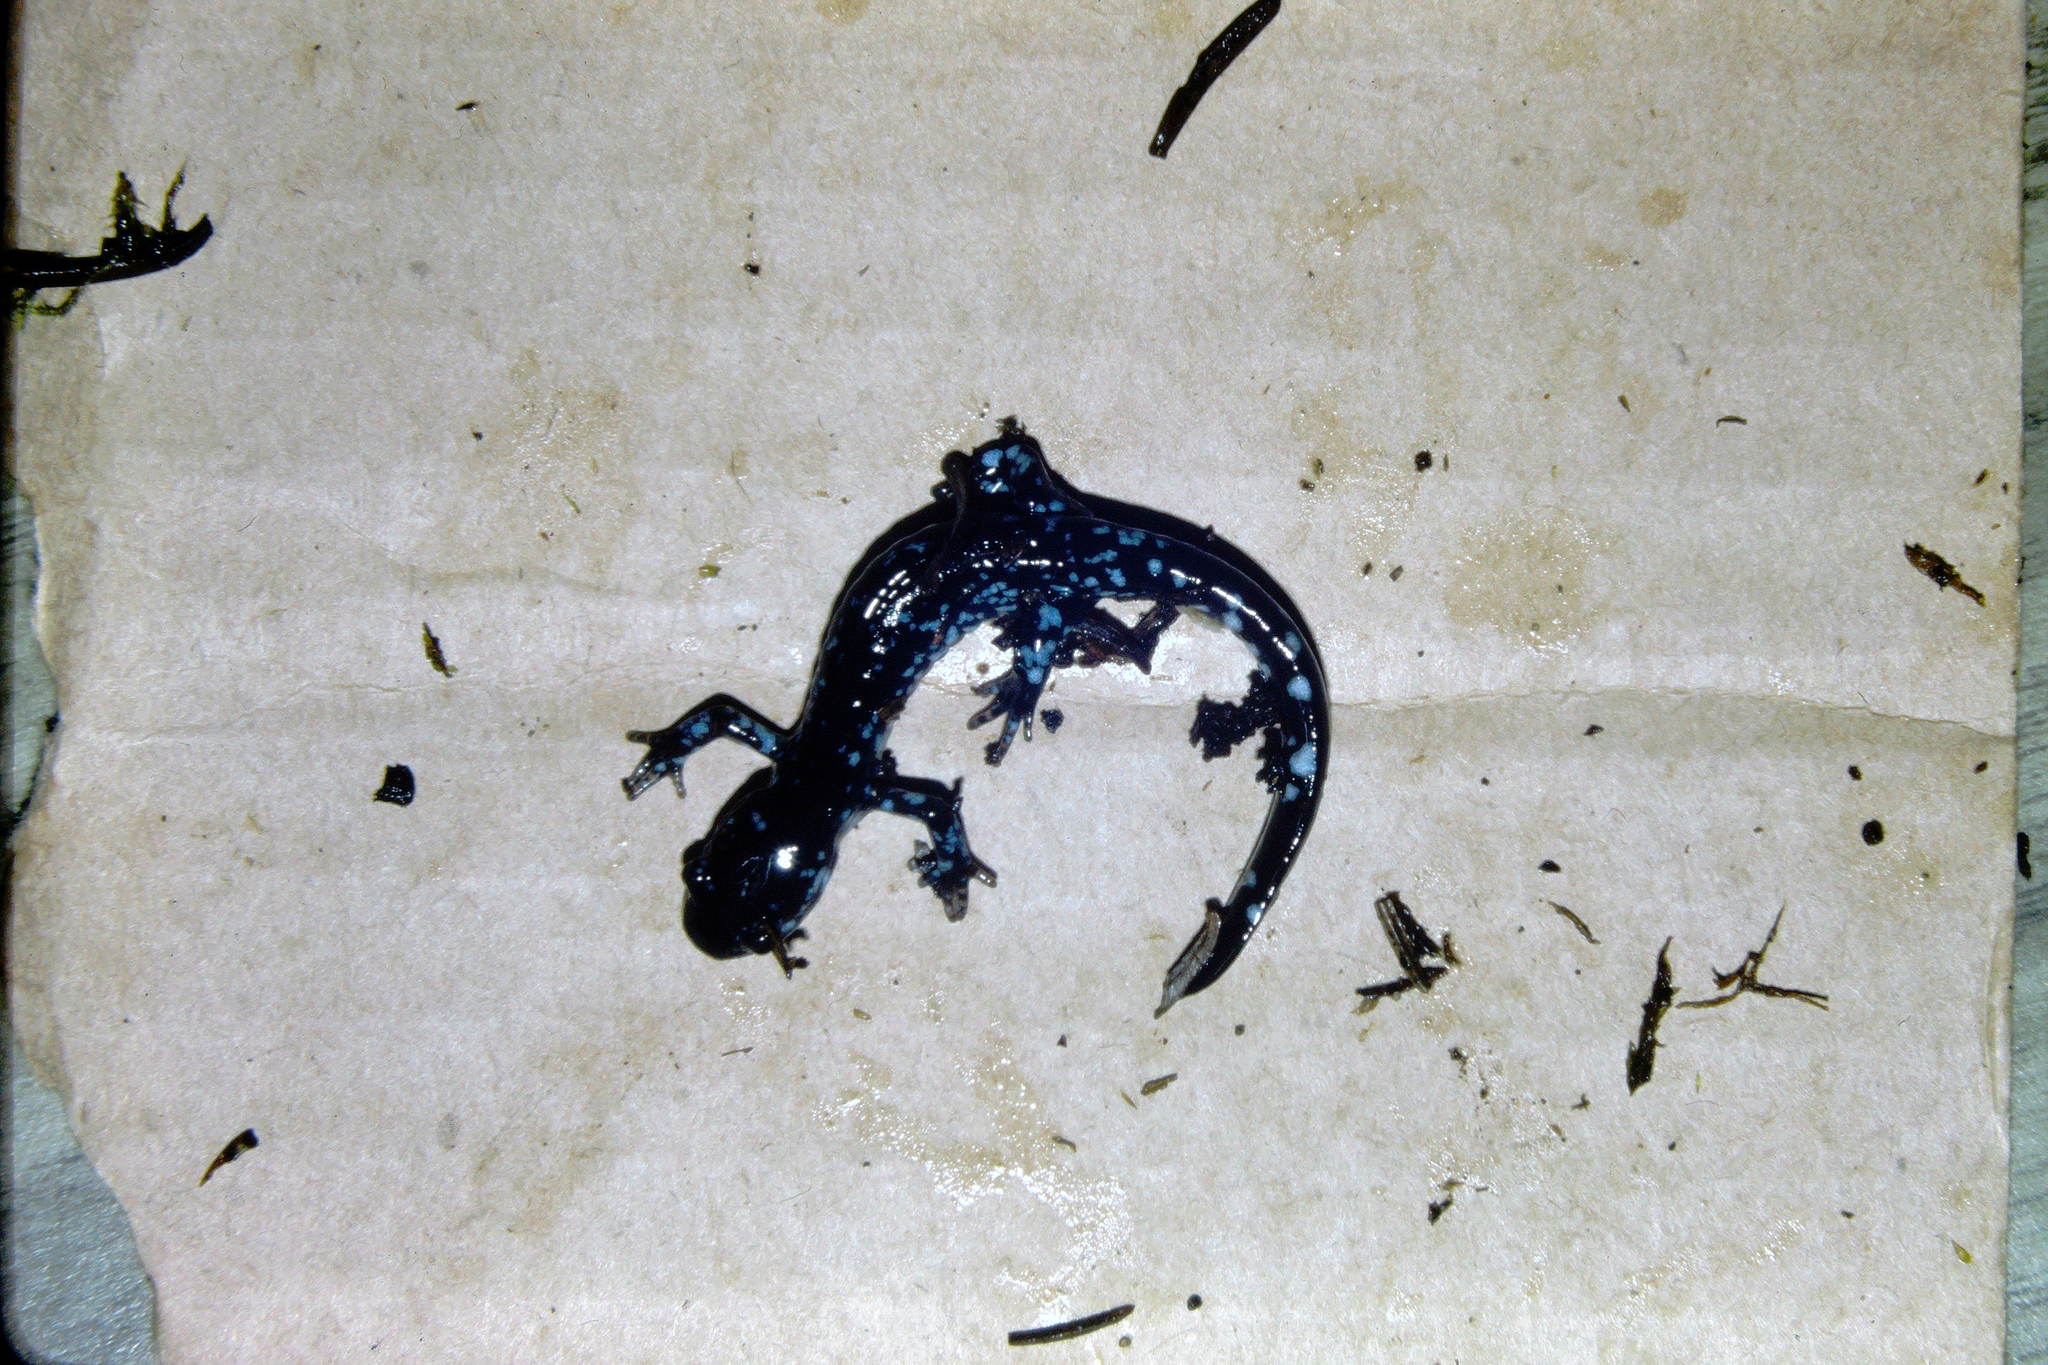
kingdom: Animalia
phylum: Chordata
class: Amphibia
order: Caudata
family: Ambystomatidae
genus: Ambystoma
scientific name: Ambystoma laterale
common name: Blue-spotted salamander
